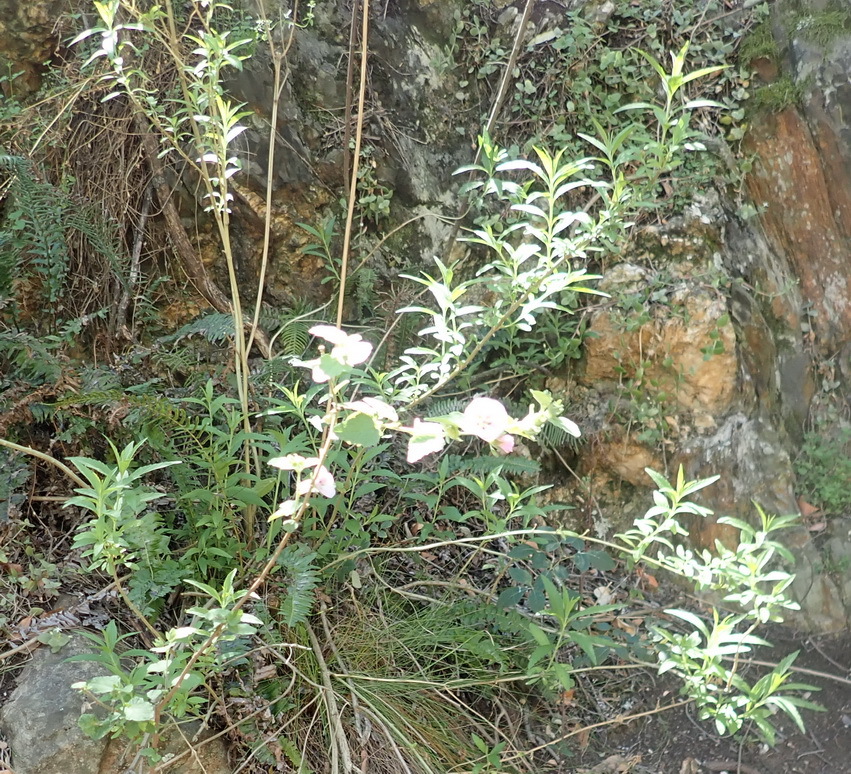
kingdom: Plantae
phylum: Tracheophyta
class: Magnoliopsida
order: Malvales
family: Malvaceae
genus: Anisodontea
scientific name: Anisodontea scabrosa
